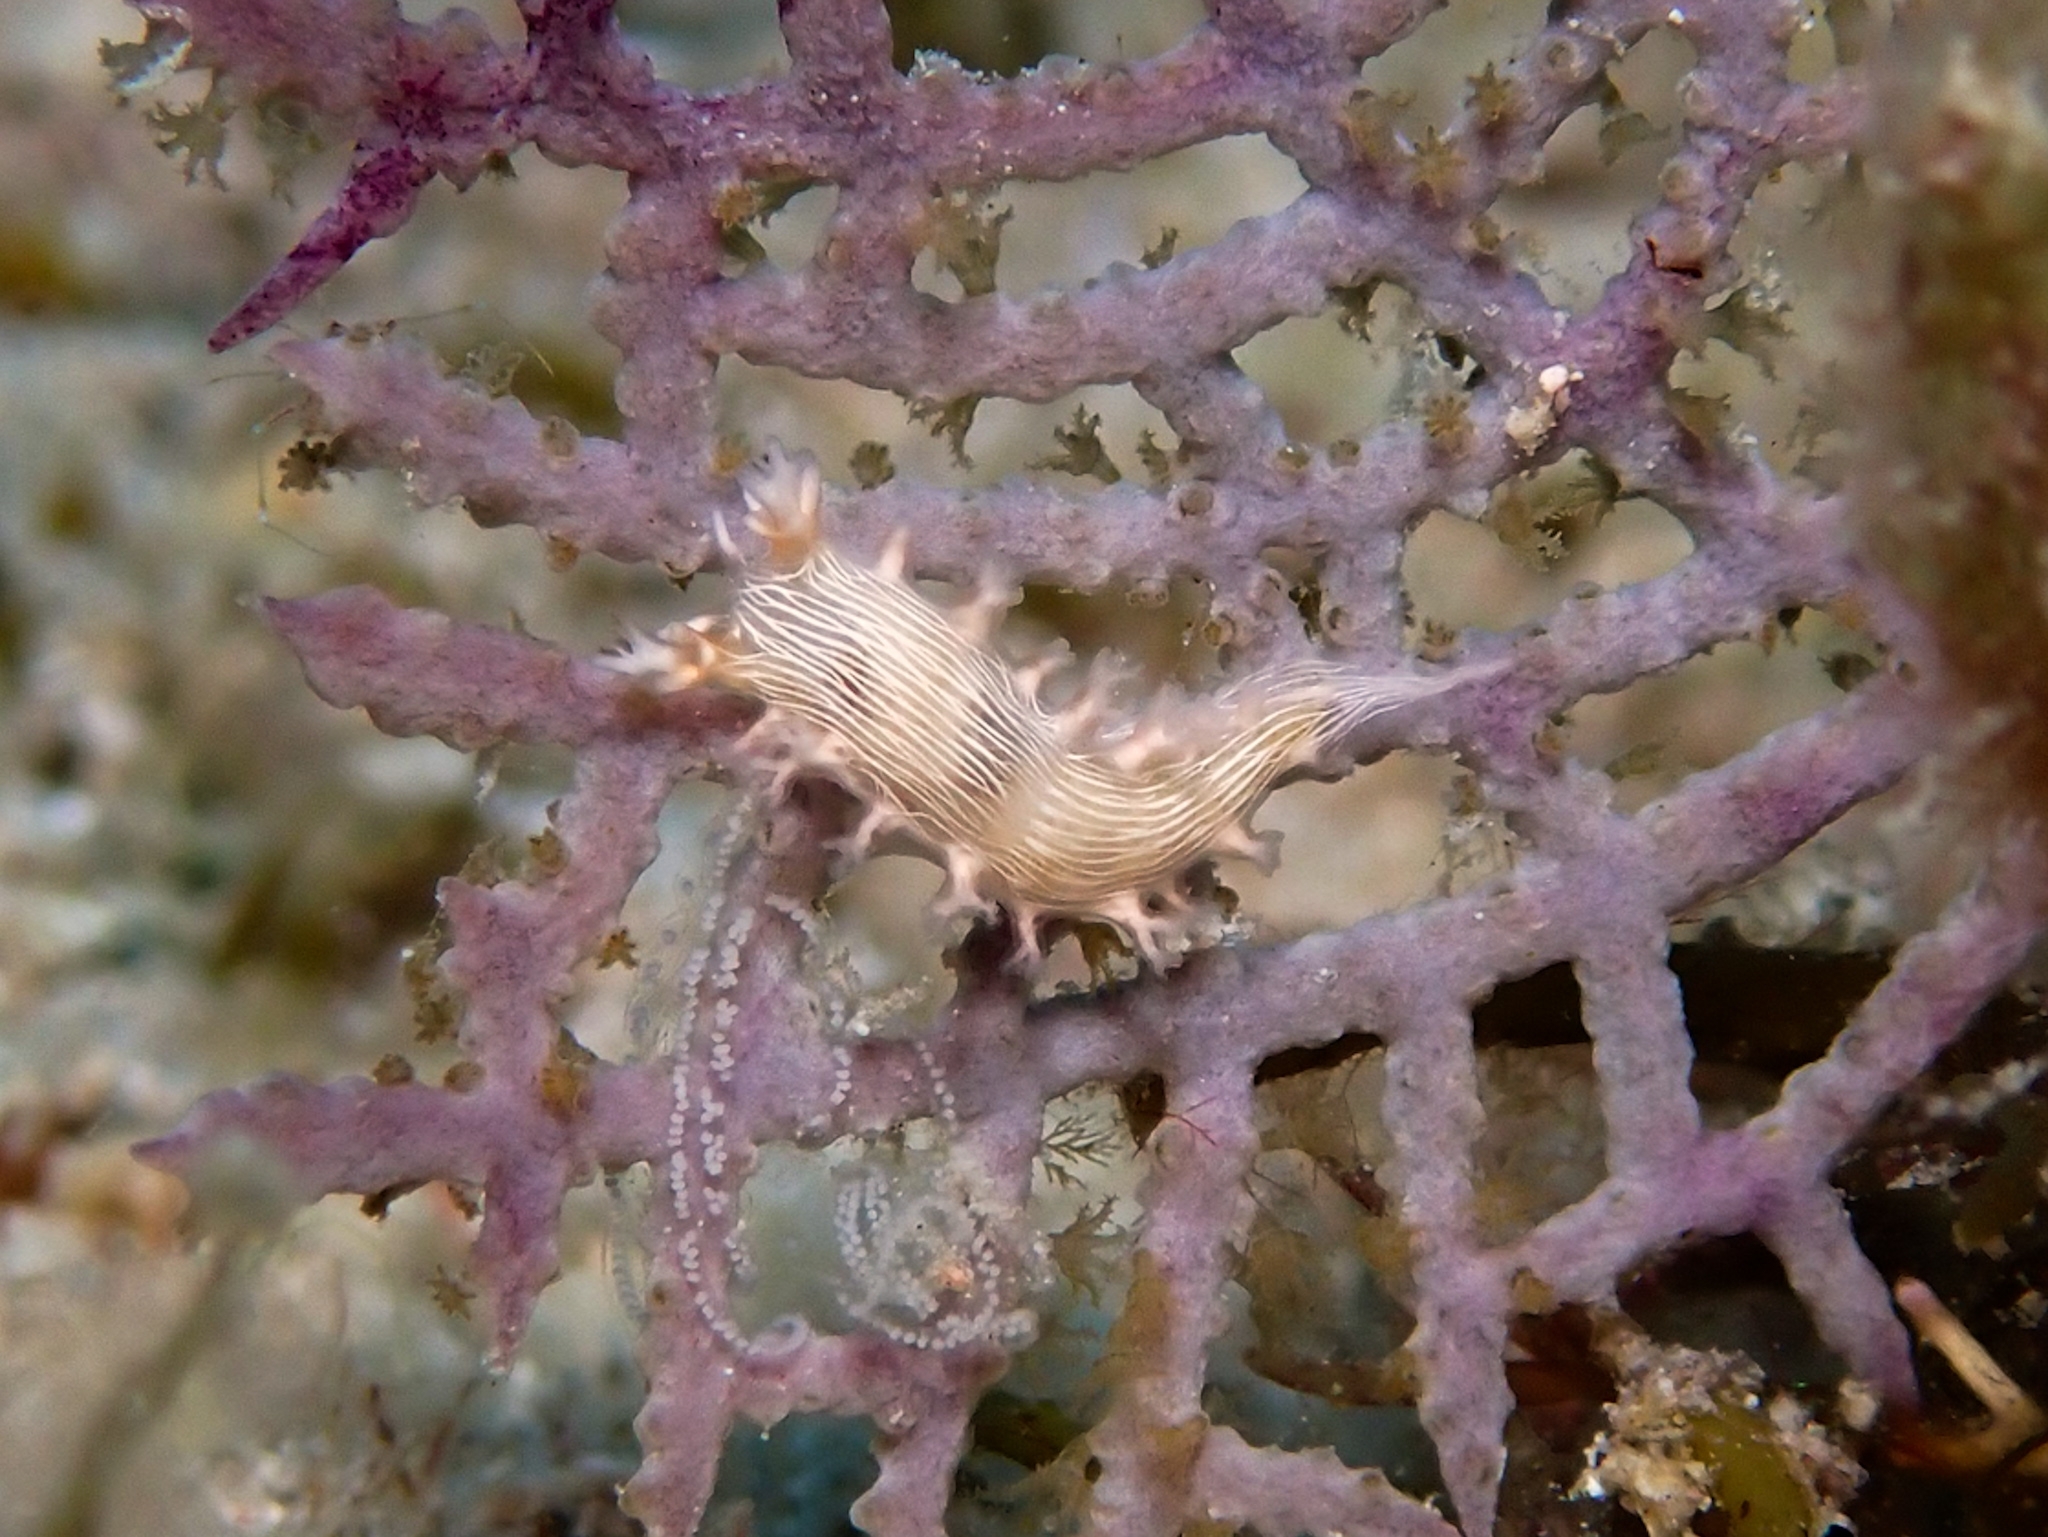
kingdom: Animalia
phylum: Mollusca
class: Gastropoda
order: Nudibranchia
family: Tritoniidae
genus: Tritonicula
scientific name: Tritonicula hamnerorum
